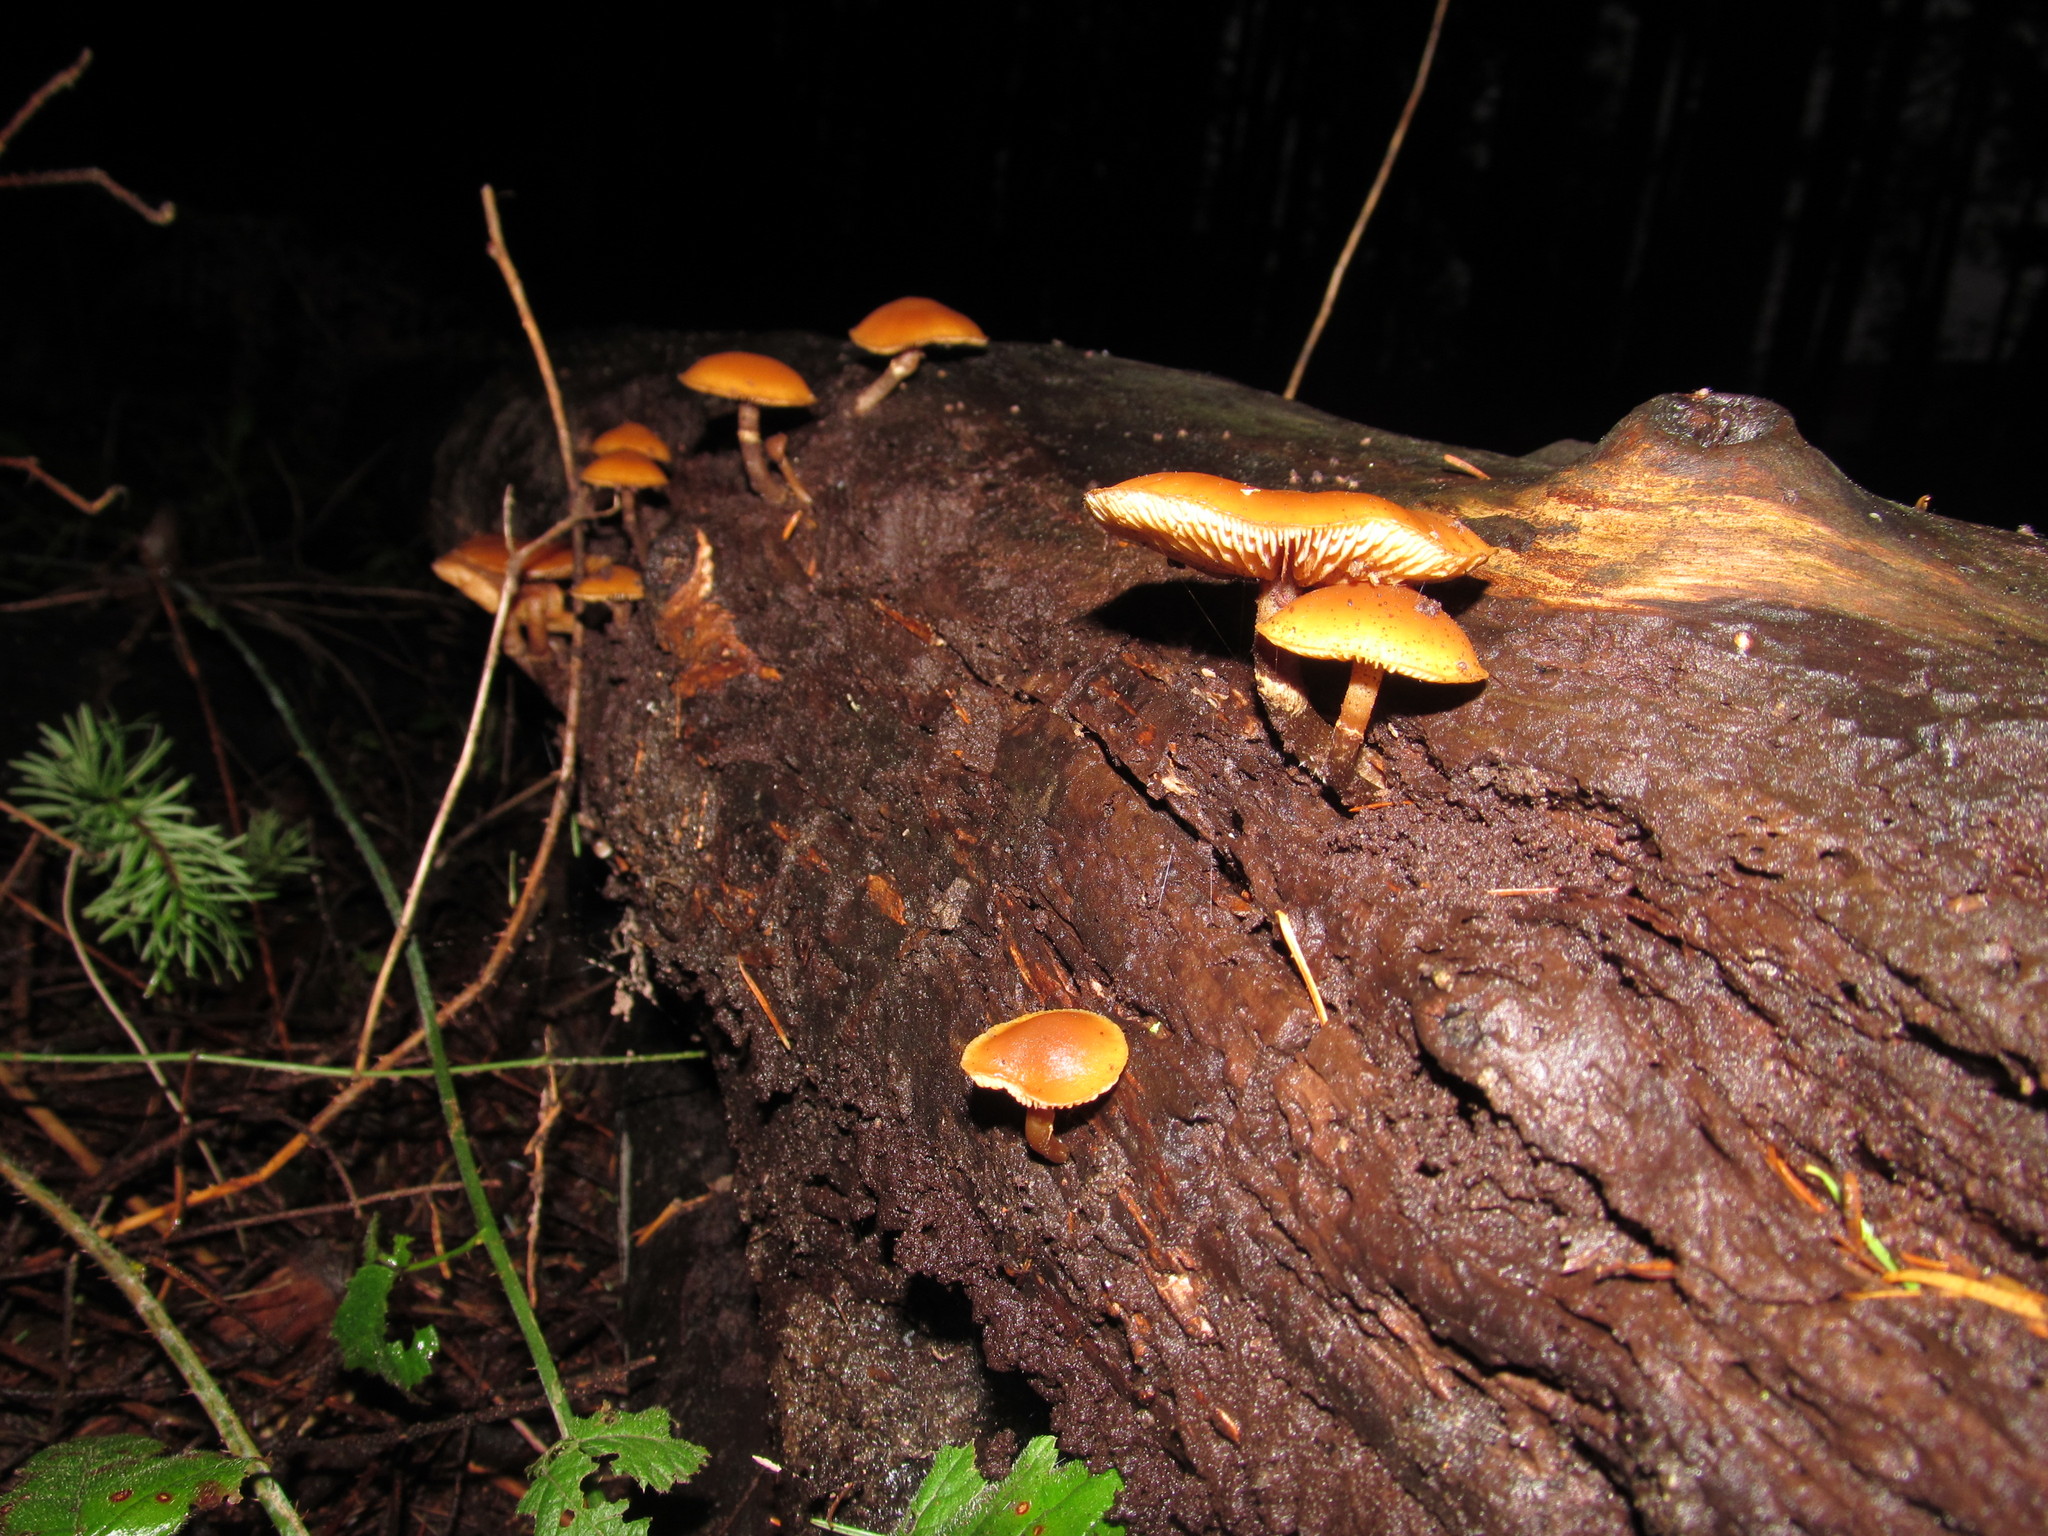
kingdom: Fungi
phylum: Basidiomycota
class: Agaricomycetes
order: Agaricales
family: Hymenogastraceae
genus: Galerina
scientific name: Galerina marginata
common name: Funeral bell
